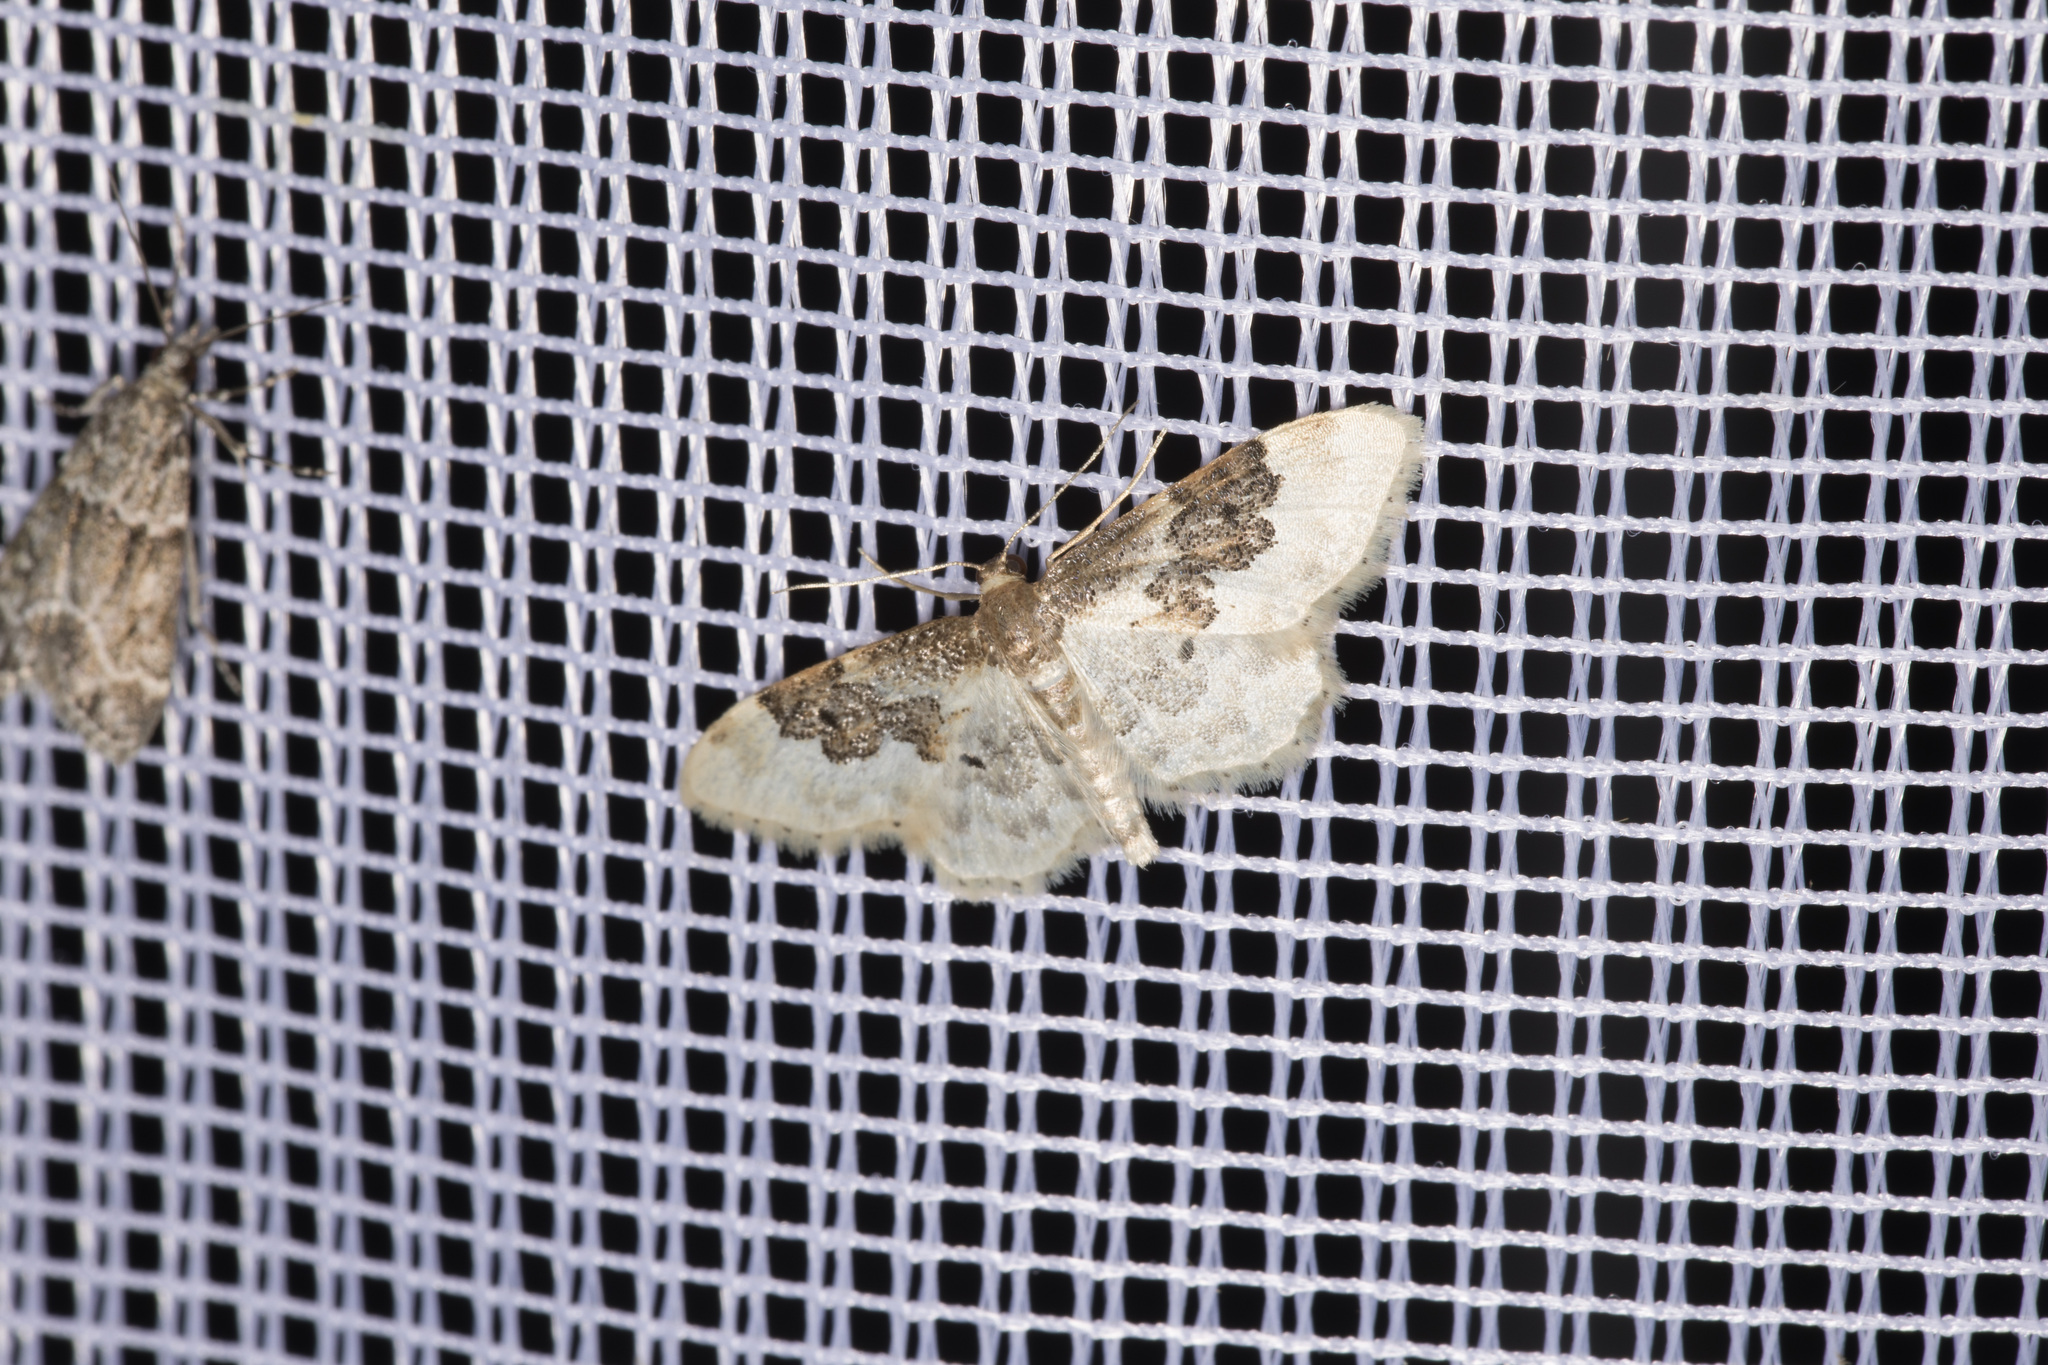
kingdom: Animalia
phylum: Arthropoda
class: Insecta
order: Lepidoptera
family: Geometridae
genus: Idaea
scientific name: Idaea rusticata
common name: Least carpet
